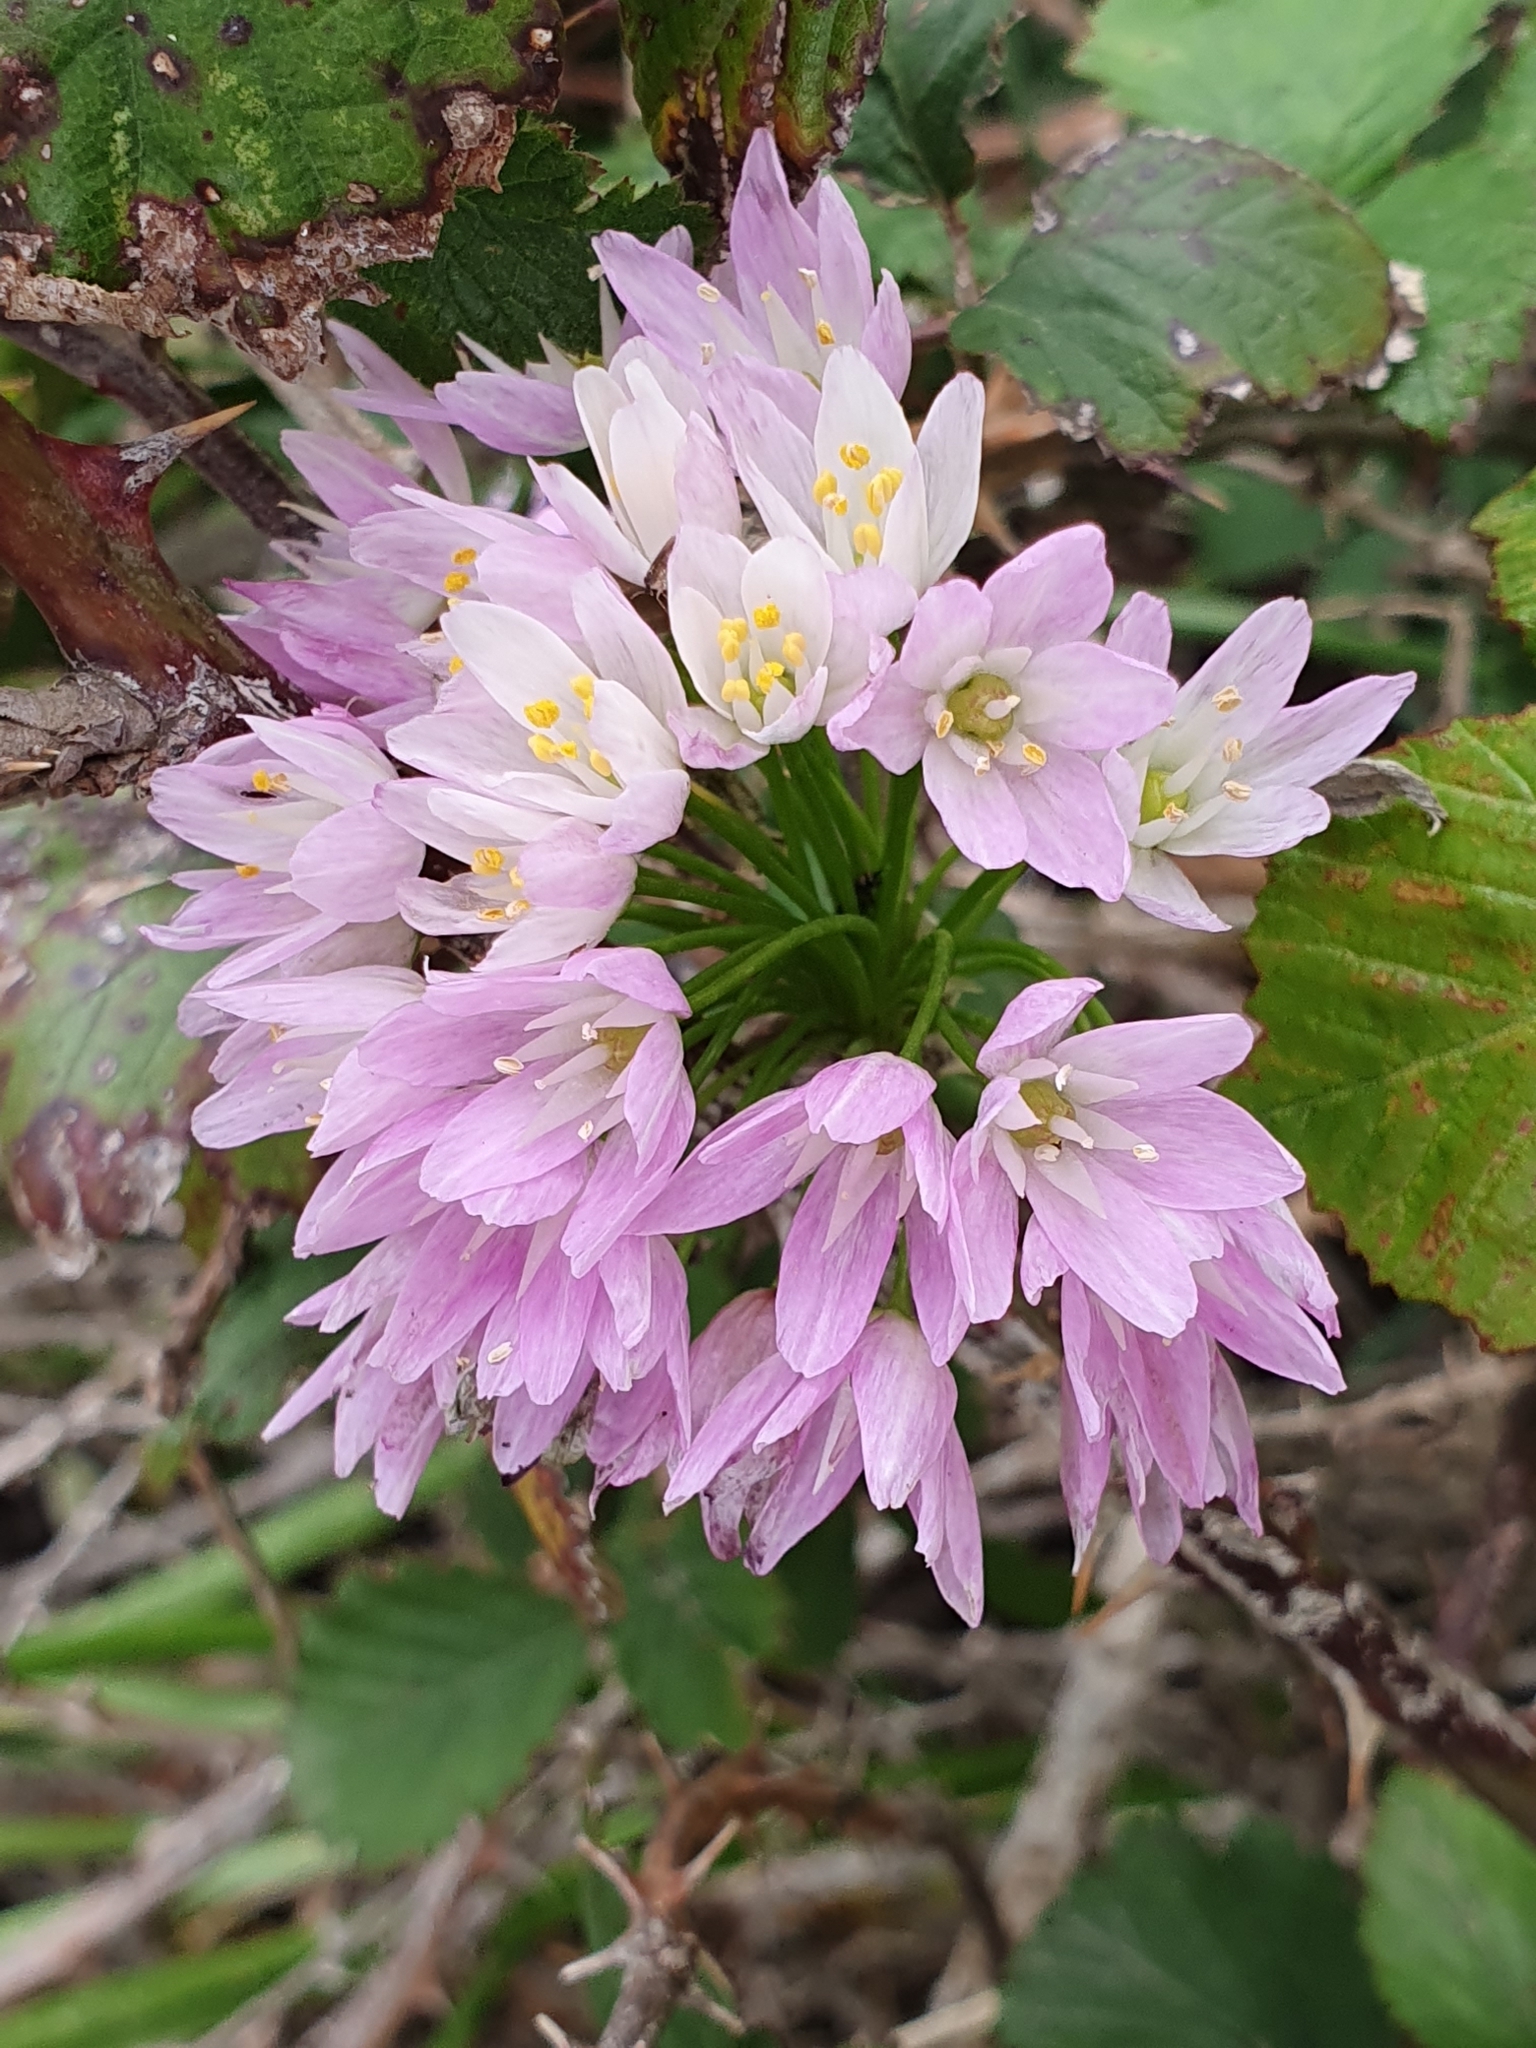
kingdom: Plantae
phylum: Tracheophyta
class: Liliopsida
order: Asparagales
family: Amaryllidaceae
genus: Allium
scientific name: Allium roseum
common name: Rosy garlic
